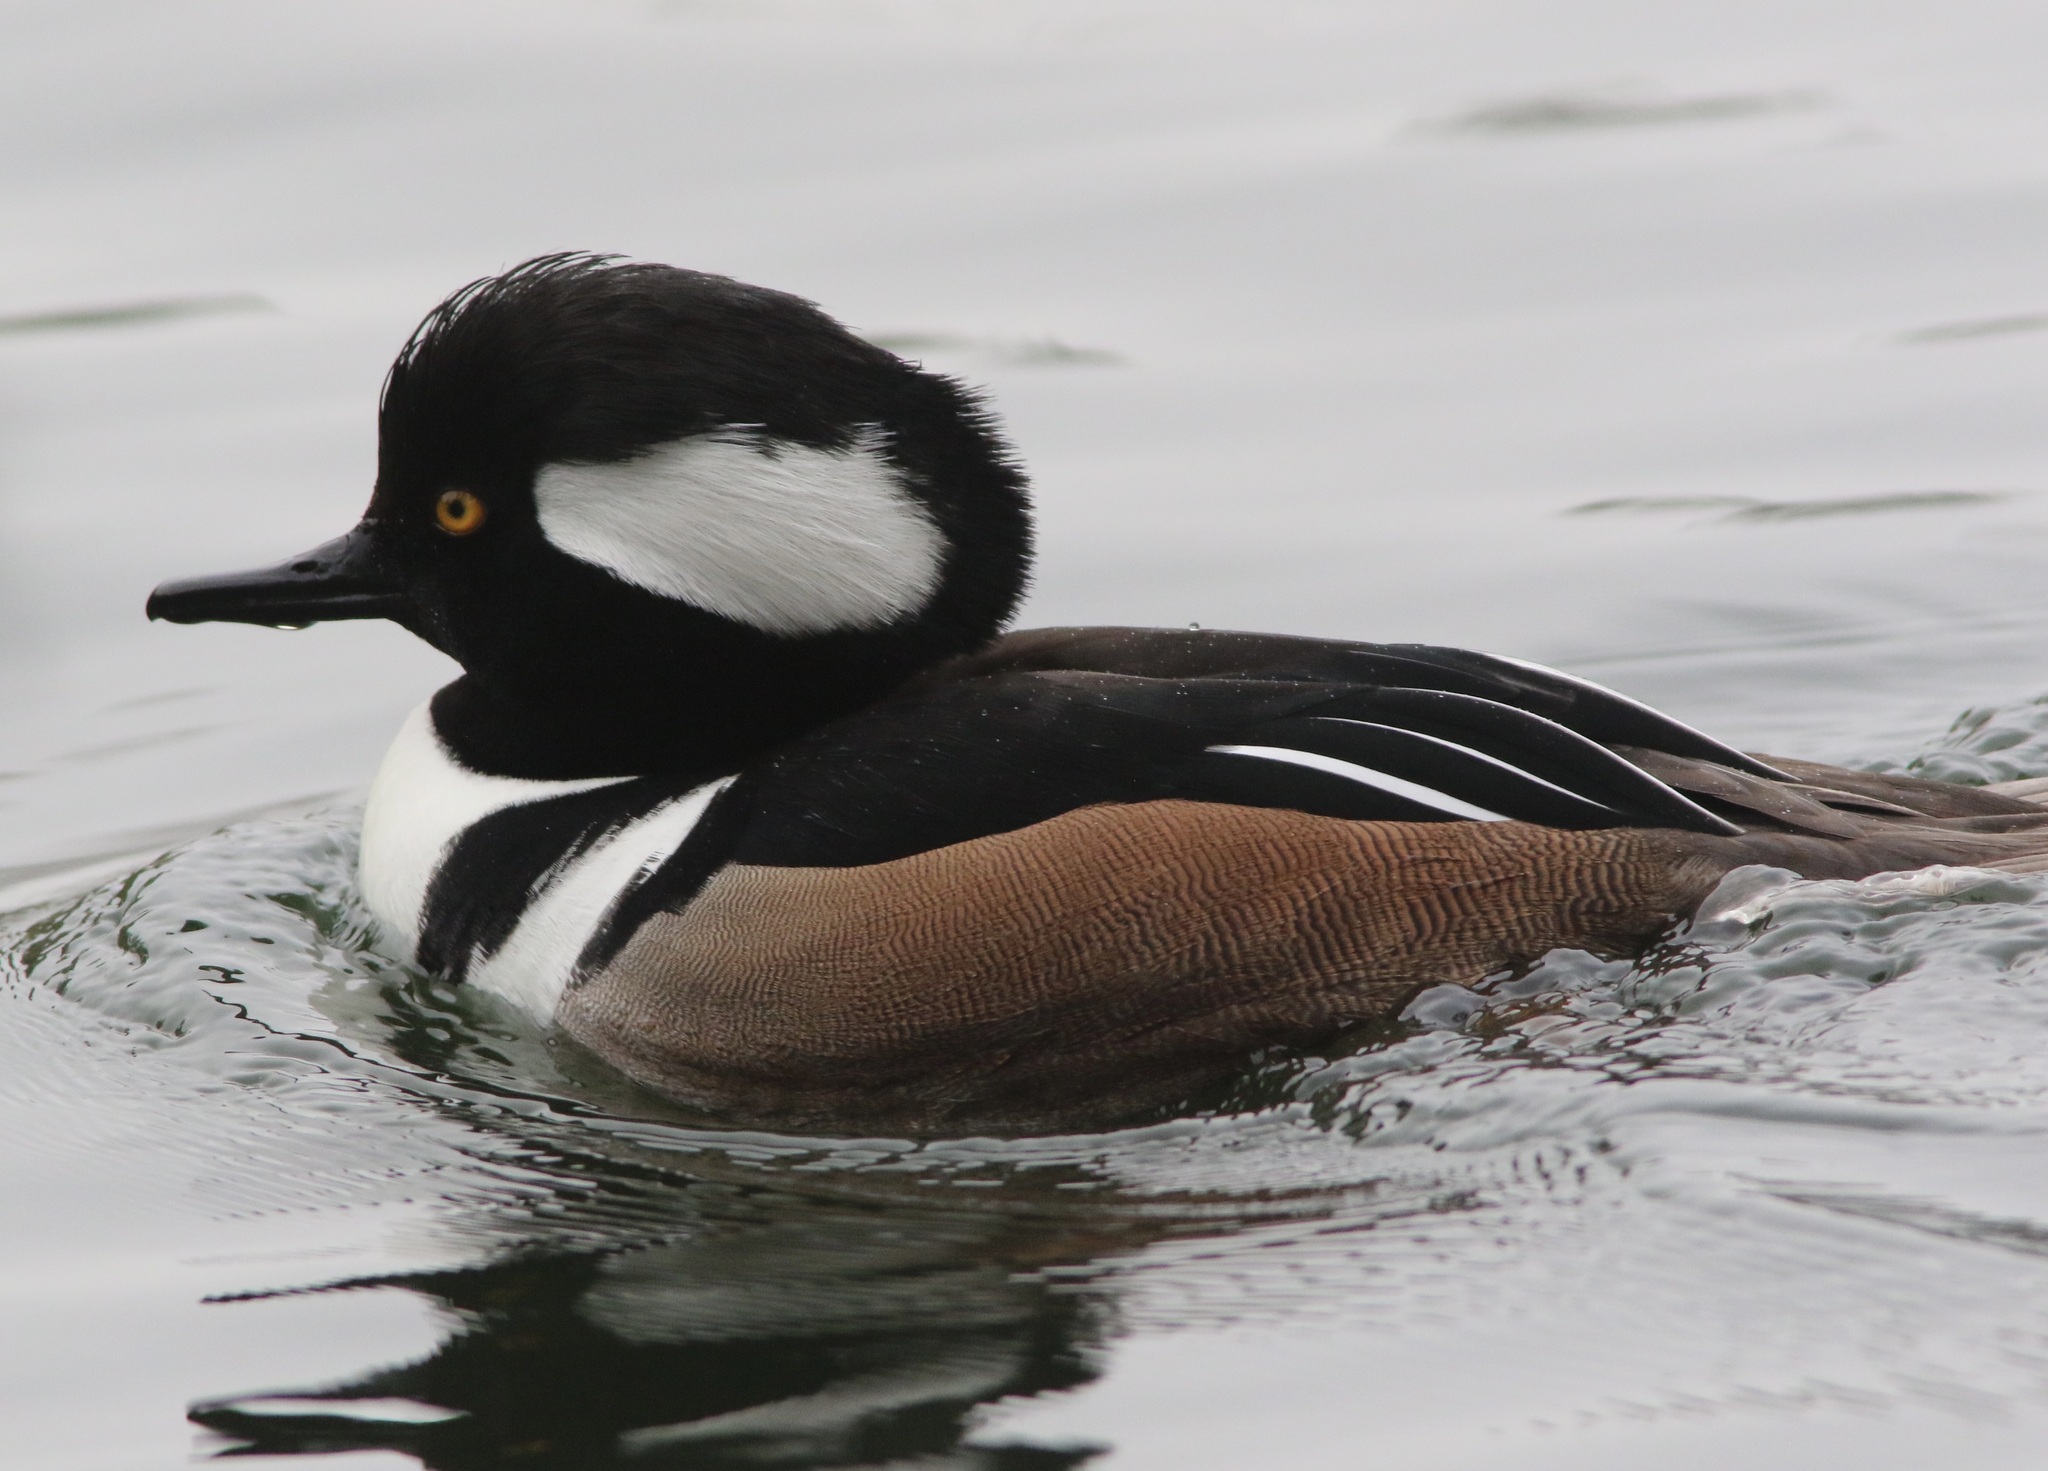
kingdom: Animalia
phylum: Chordata
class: Aves
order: Anseriformes
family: Anatidae
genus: Lophodytes
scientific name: Lophodytes cucullatus
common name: Hooded merganser
